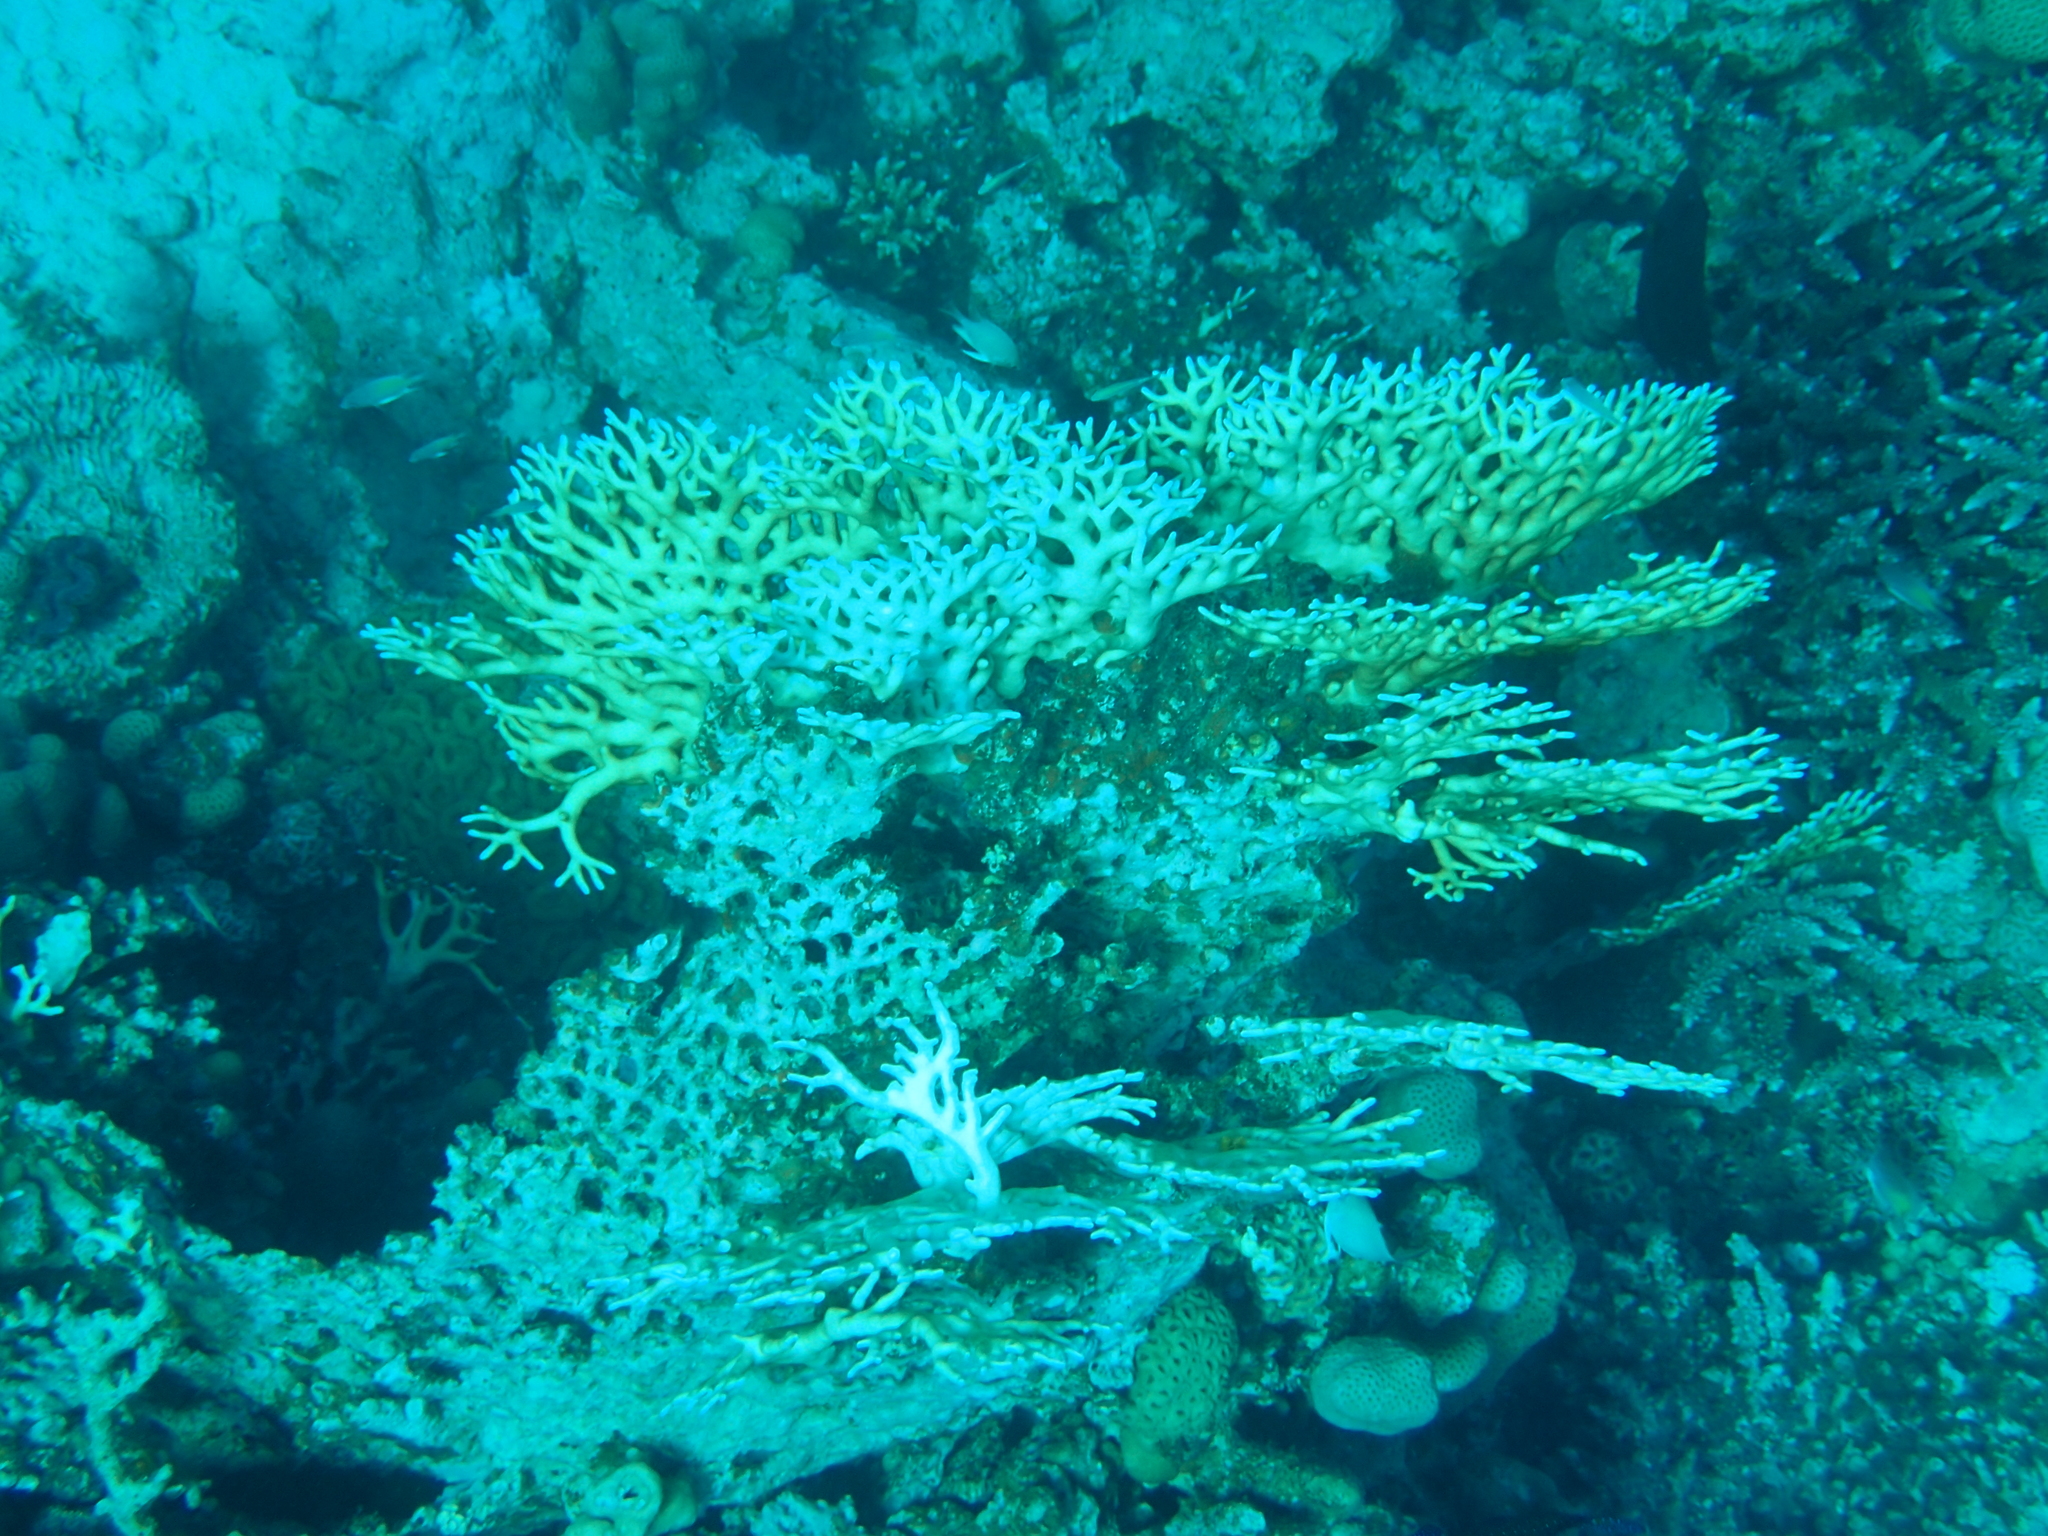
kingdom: Animalia
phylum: Cnidaria
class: Hydrozoa
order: Anthoathecata
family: Milleporidae
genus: Millepora
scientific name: Millepora dichotoma
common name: Ramified fire coral
